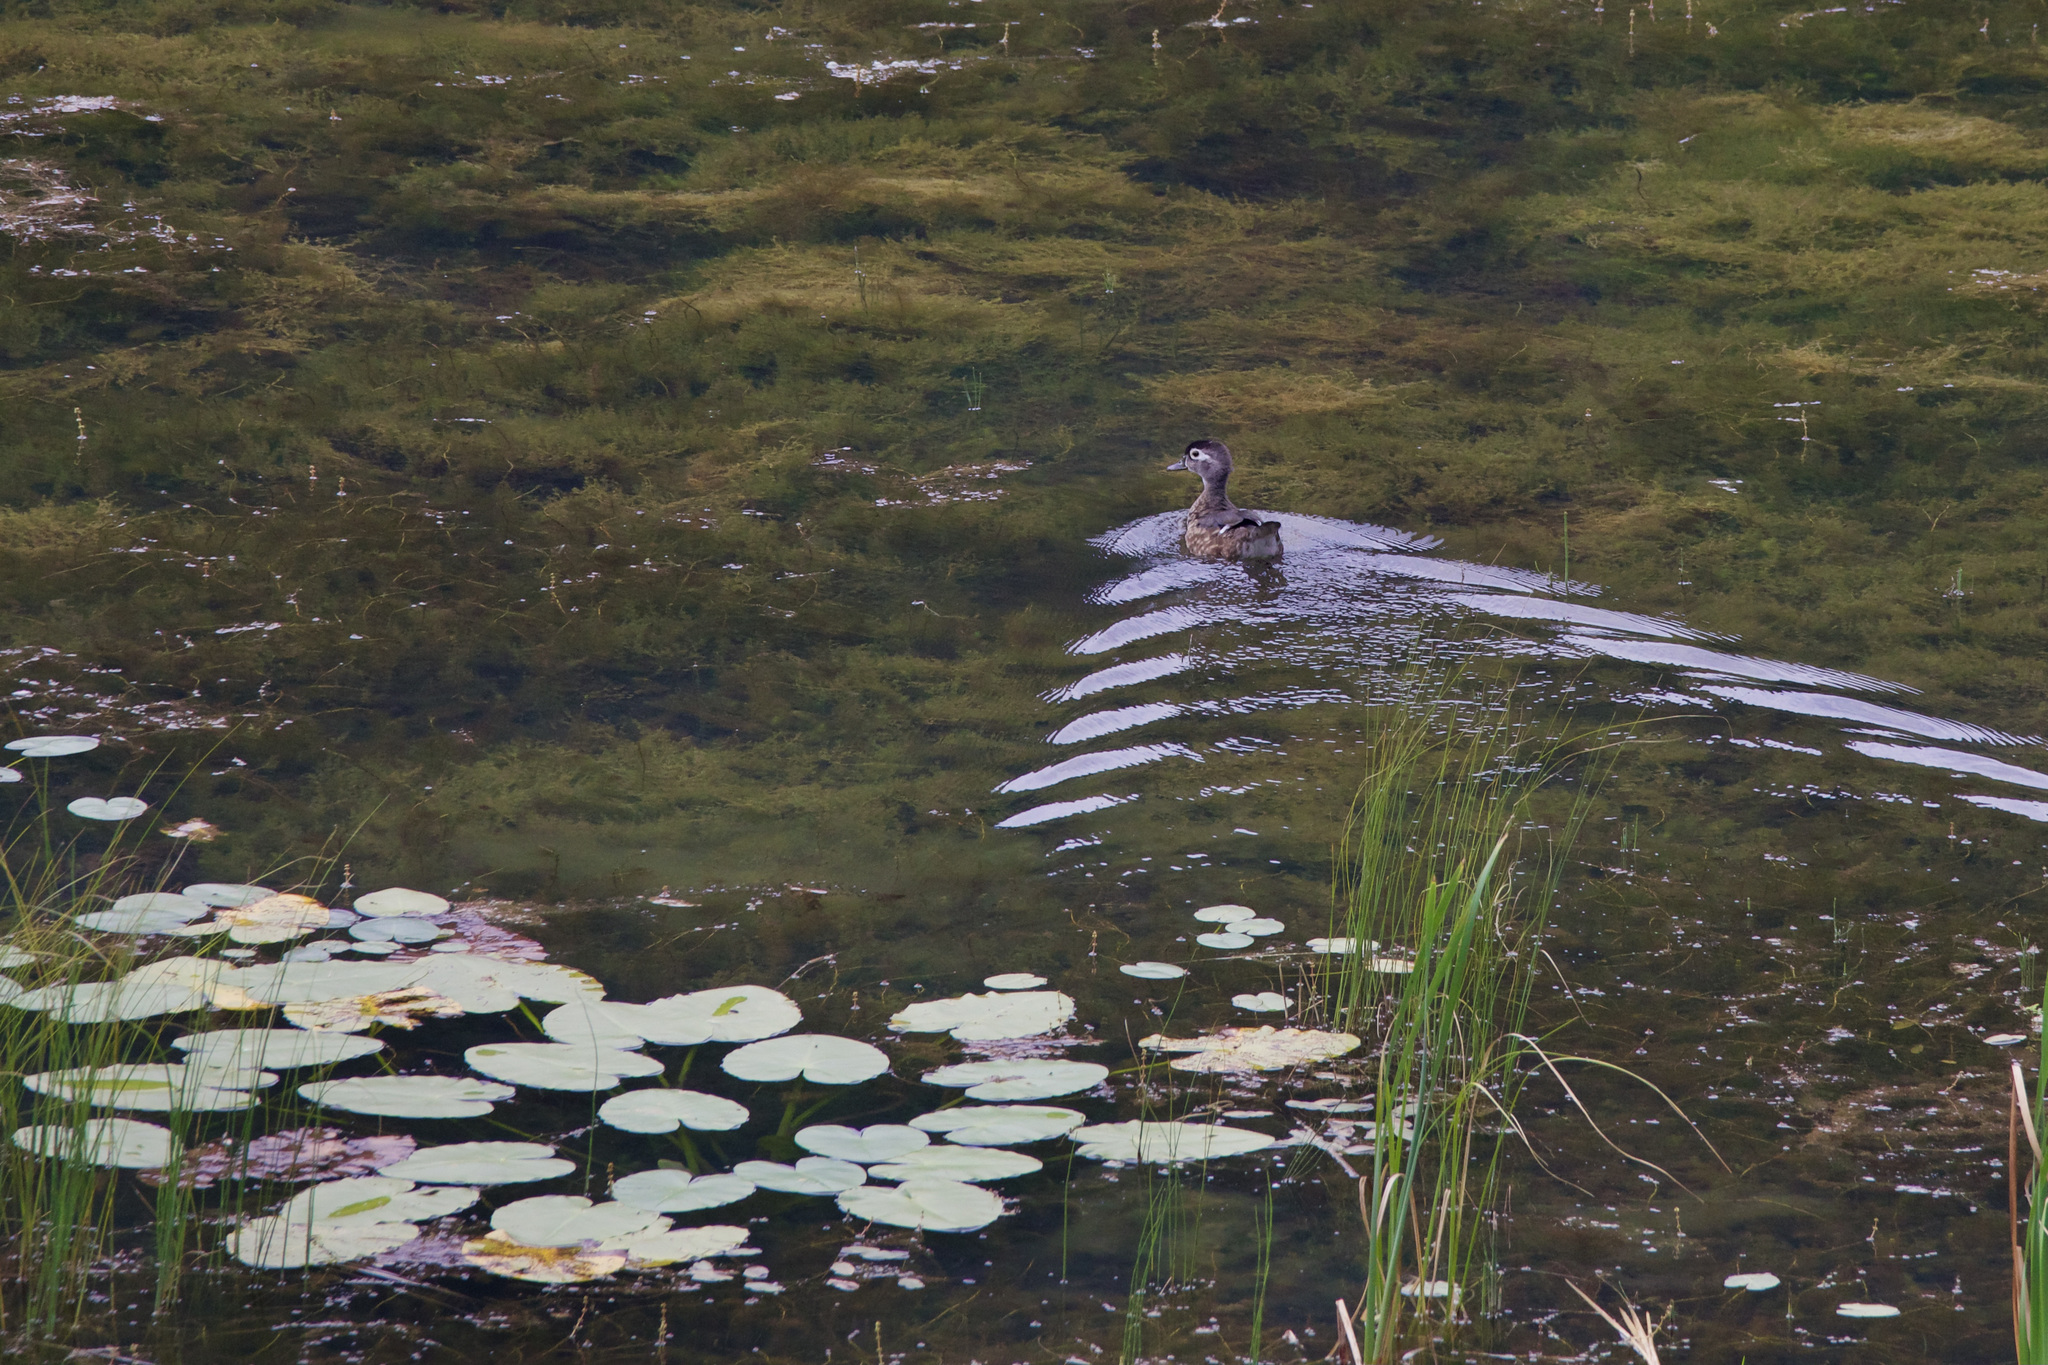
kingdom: Animalia
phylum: Chordata
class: Aves
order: Anseriformes
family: Anatidae
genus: Aix
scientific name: Aix sponsa
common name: Wood duck
